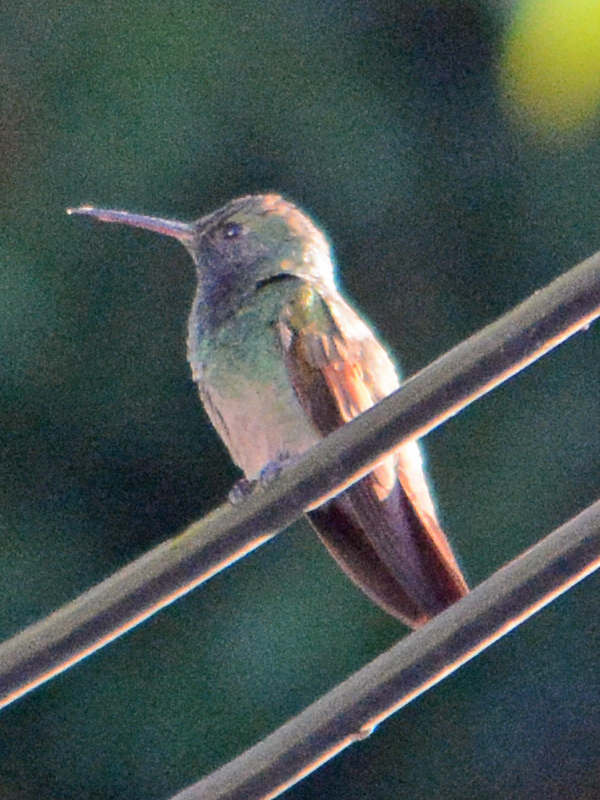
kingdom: Animalia
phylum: Chordata
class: Aves
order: Apodiformes
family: Trochilidae
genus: Saucerottia
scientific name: Saucerottia beryllina
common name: Berylline hummingbird
